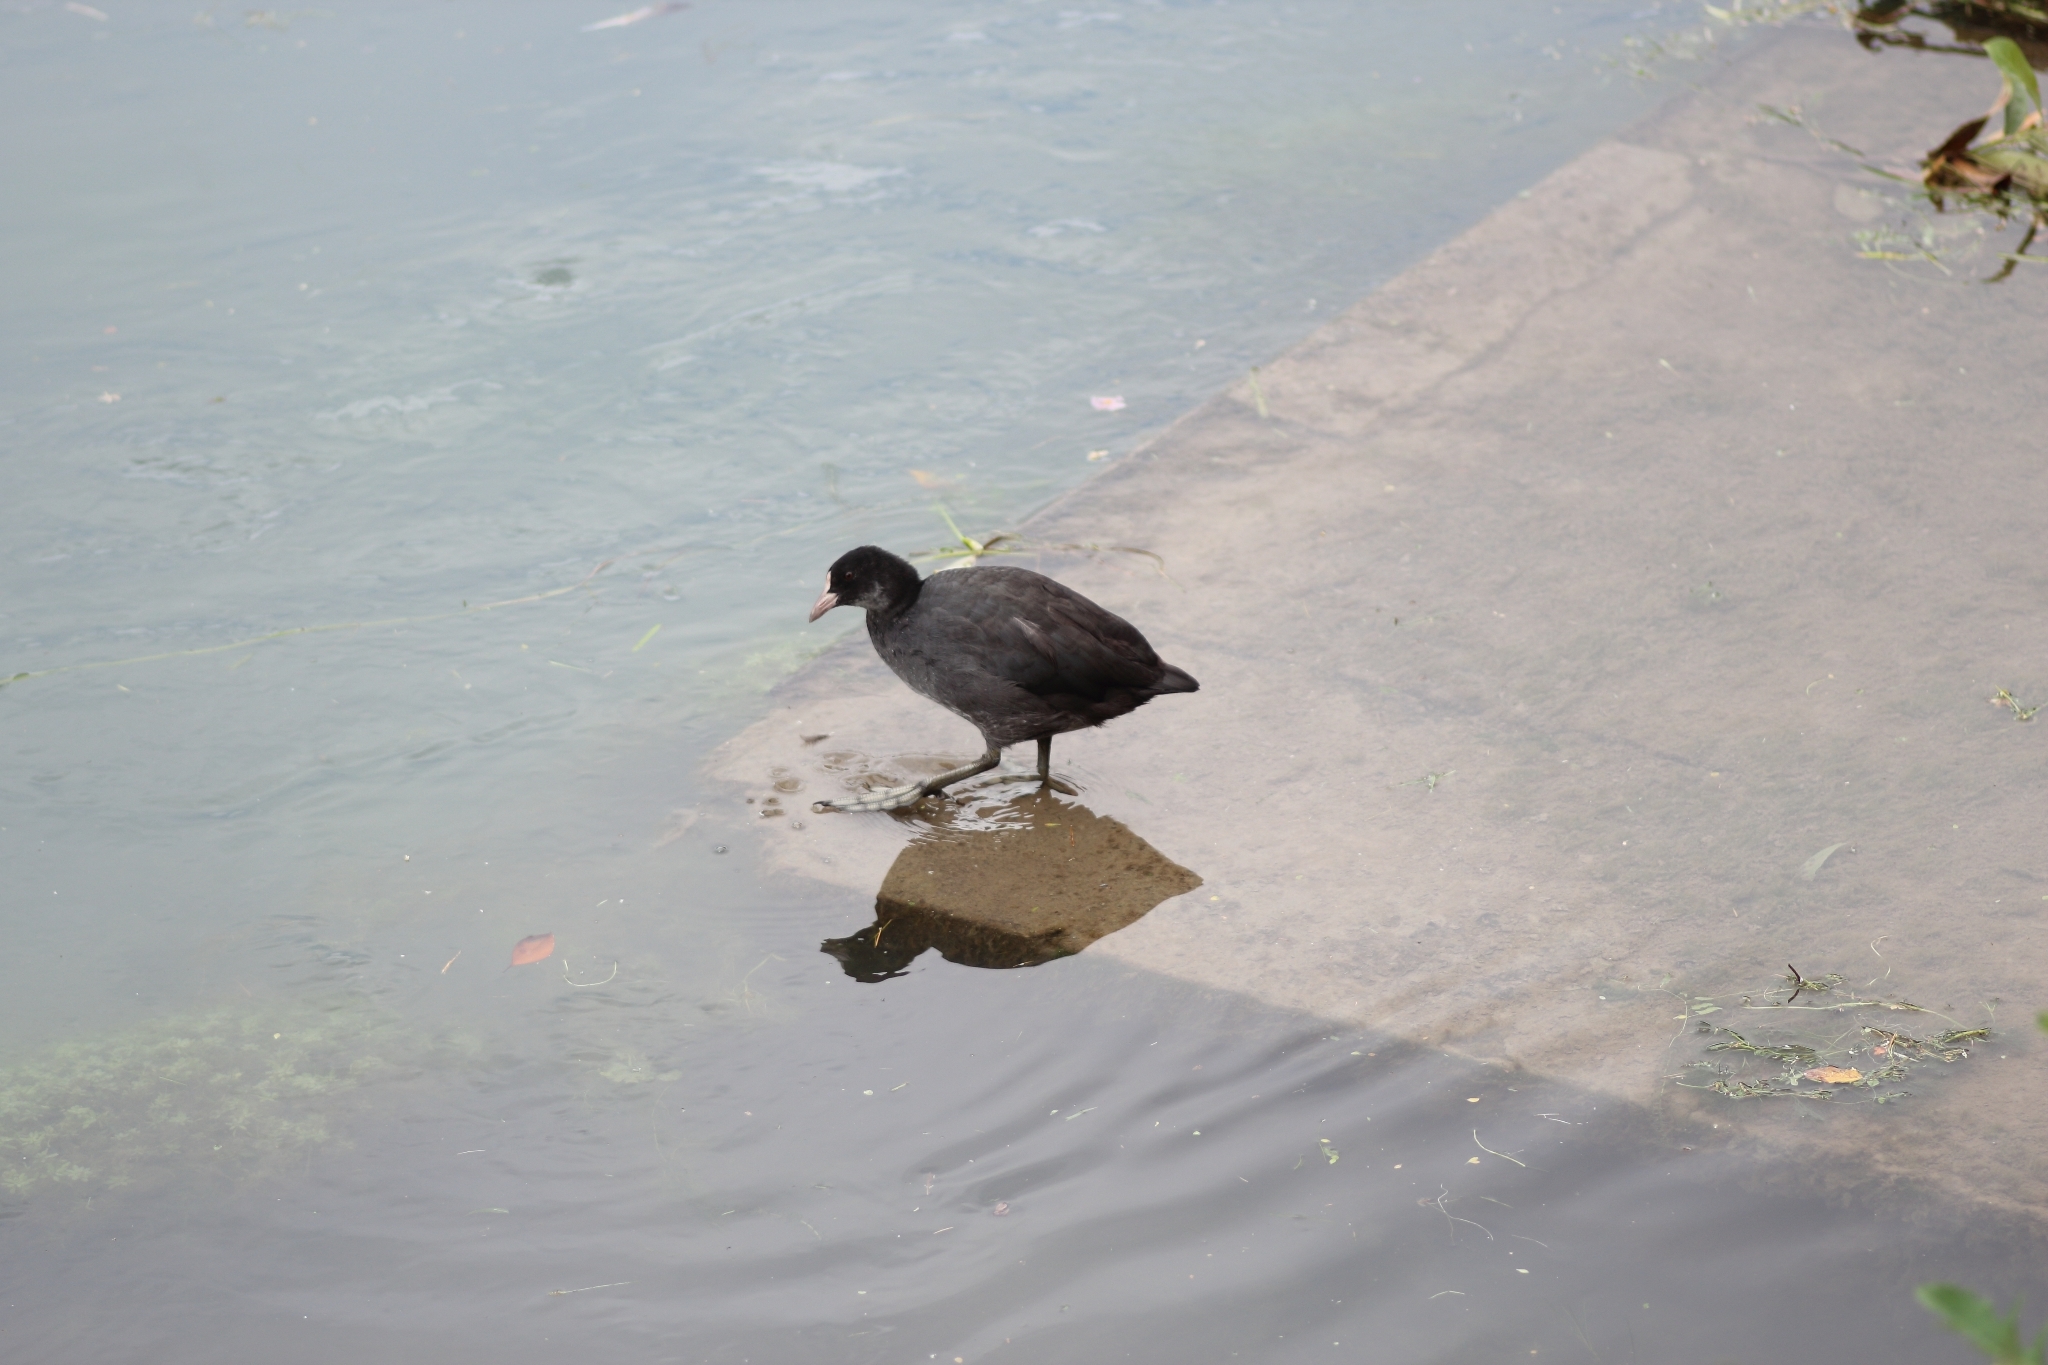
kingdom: Animalia
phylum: Chordata
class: Aves
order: Gruiformes
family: Rallidae
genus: Fulica
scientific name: Fulica atra
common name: Eurasian coot
